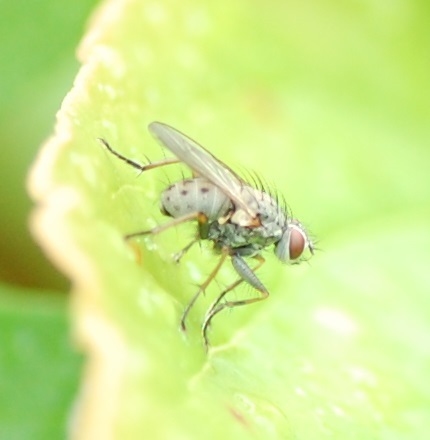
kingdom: Animalia
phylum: Arthropoda
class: Insecta
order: Diptera
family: Muscidae
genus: Coenosia
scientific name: Coenosia tigrina
